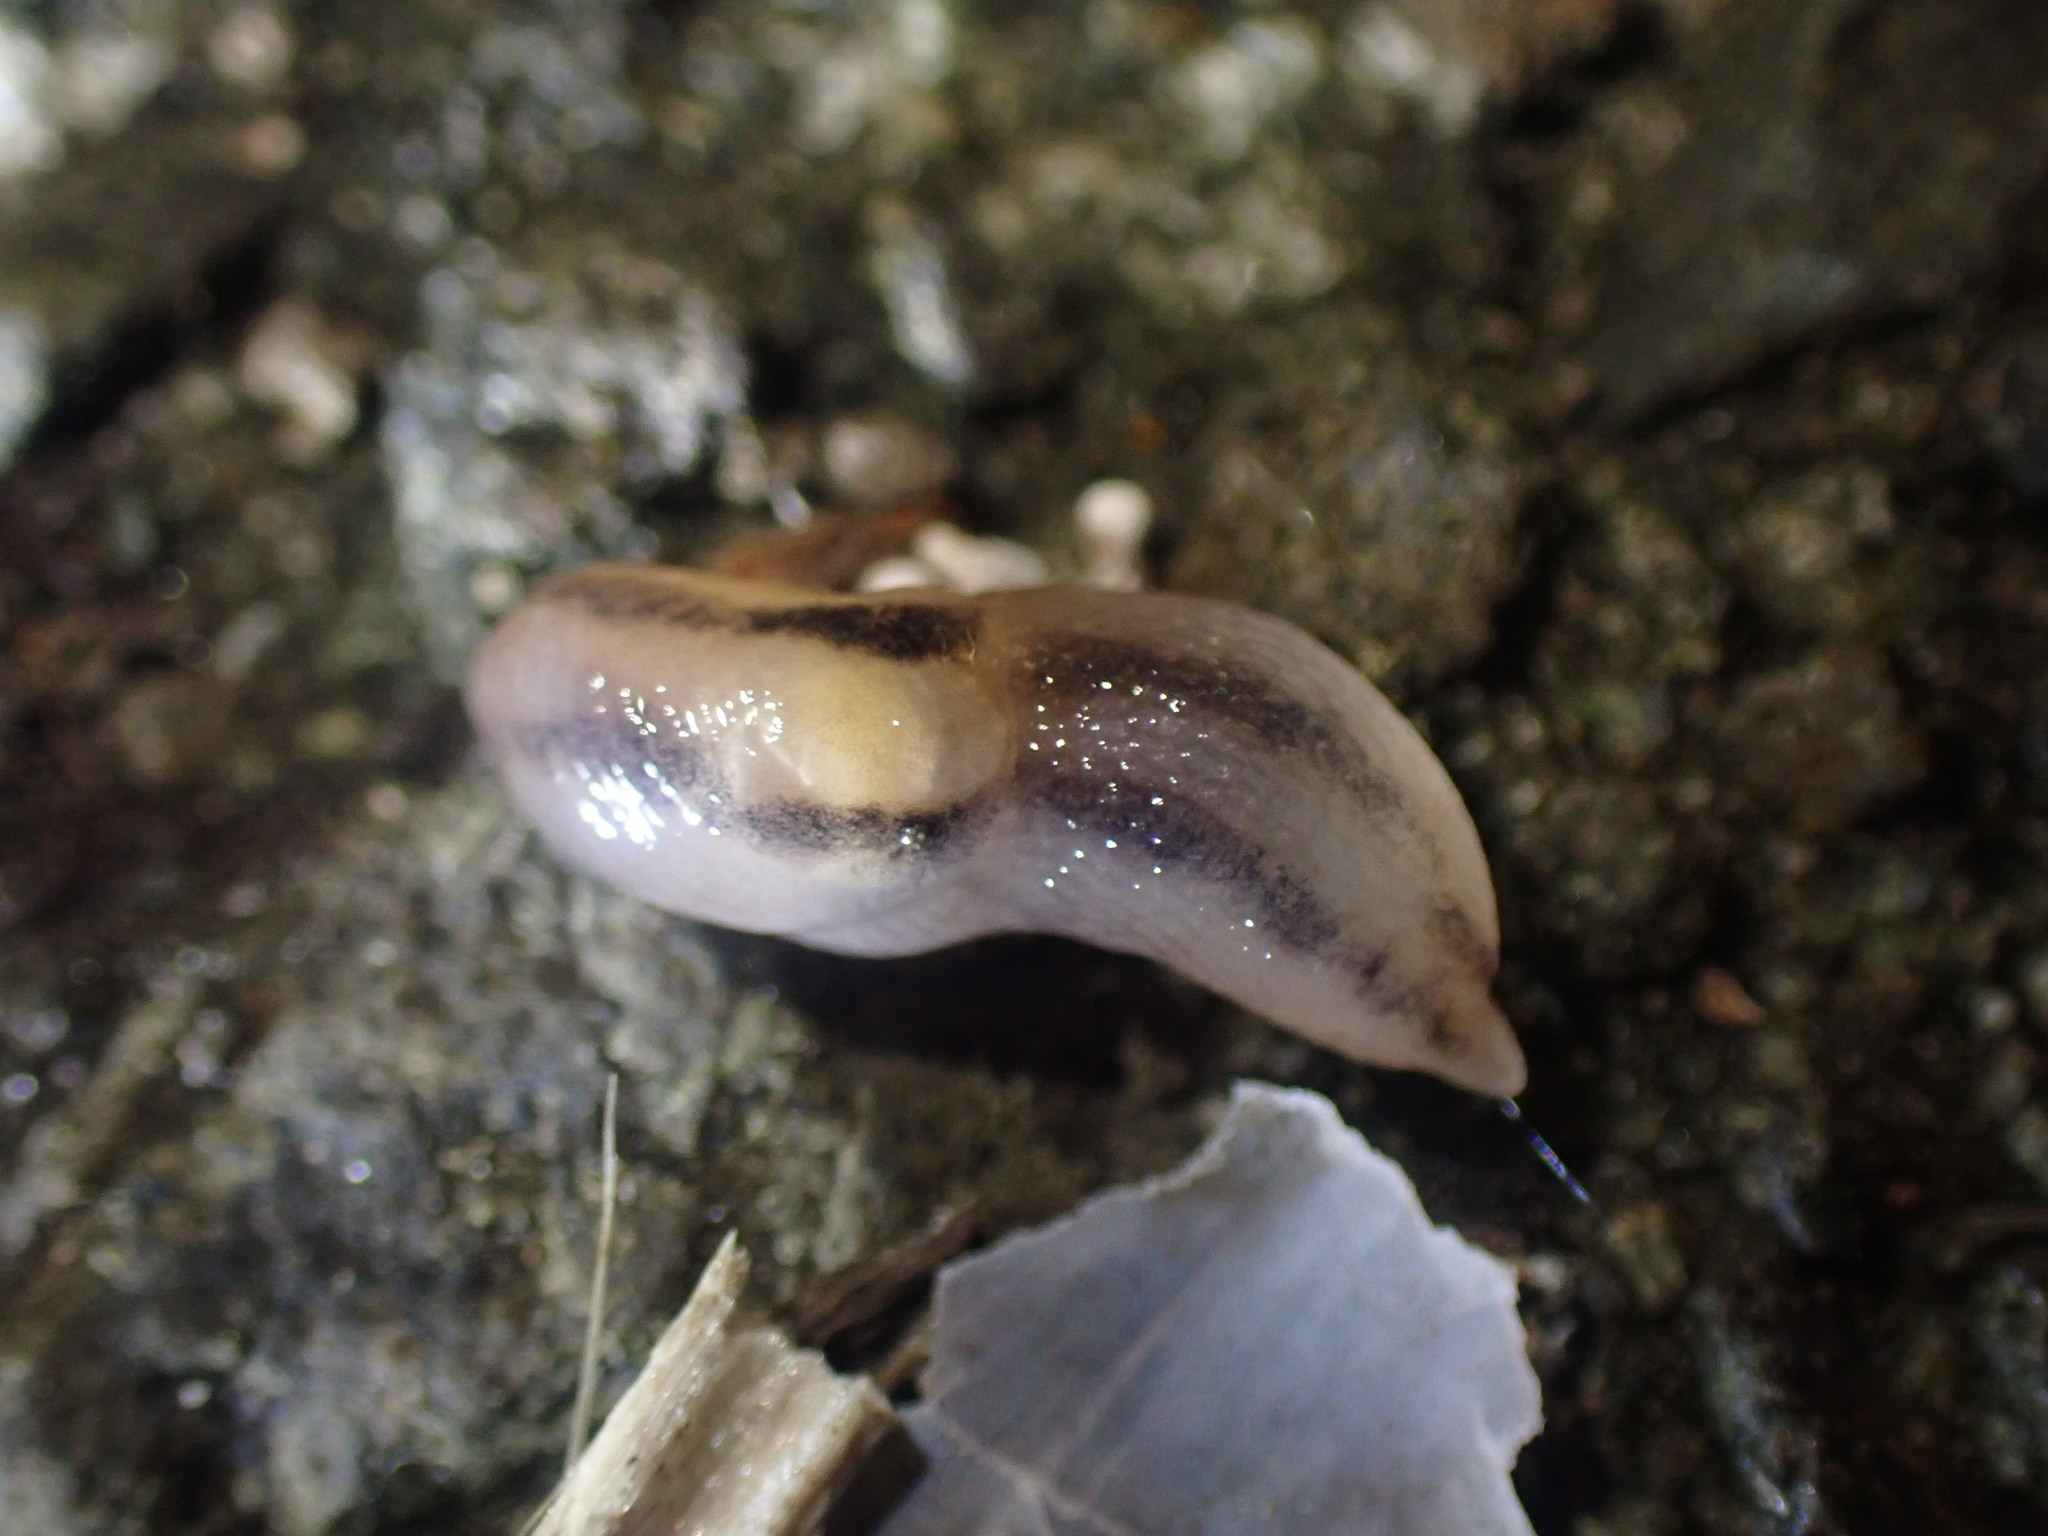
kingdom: Animalia
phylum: Mollusca
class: Gastropoda
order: Stylommatophora
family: Limacidae
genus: Ambigolimax
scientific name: Ambigolimax
